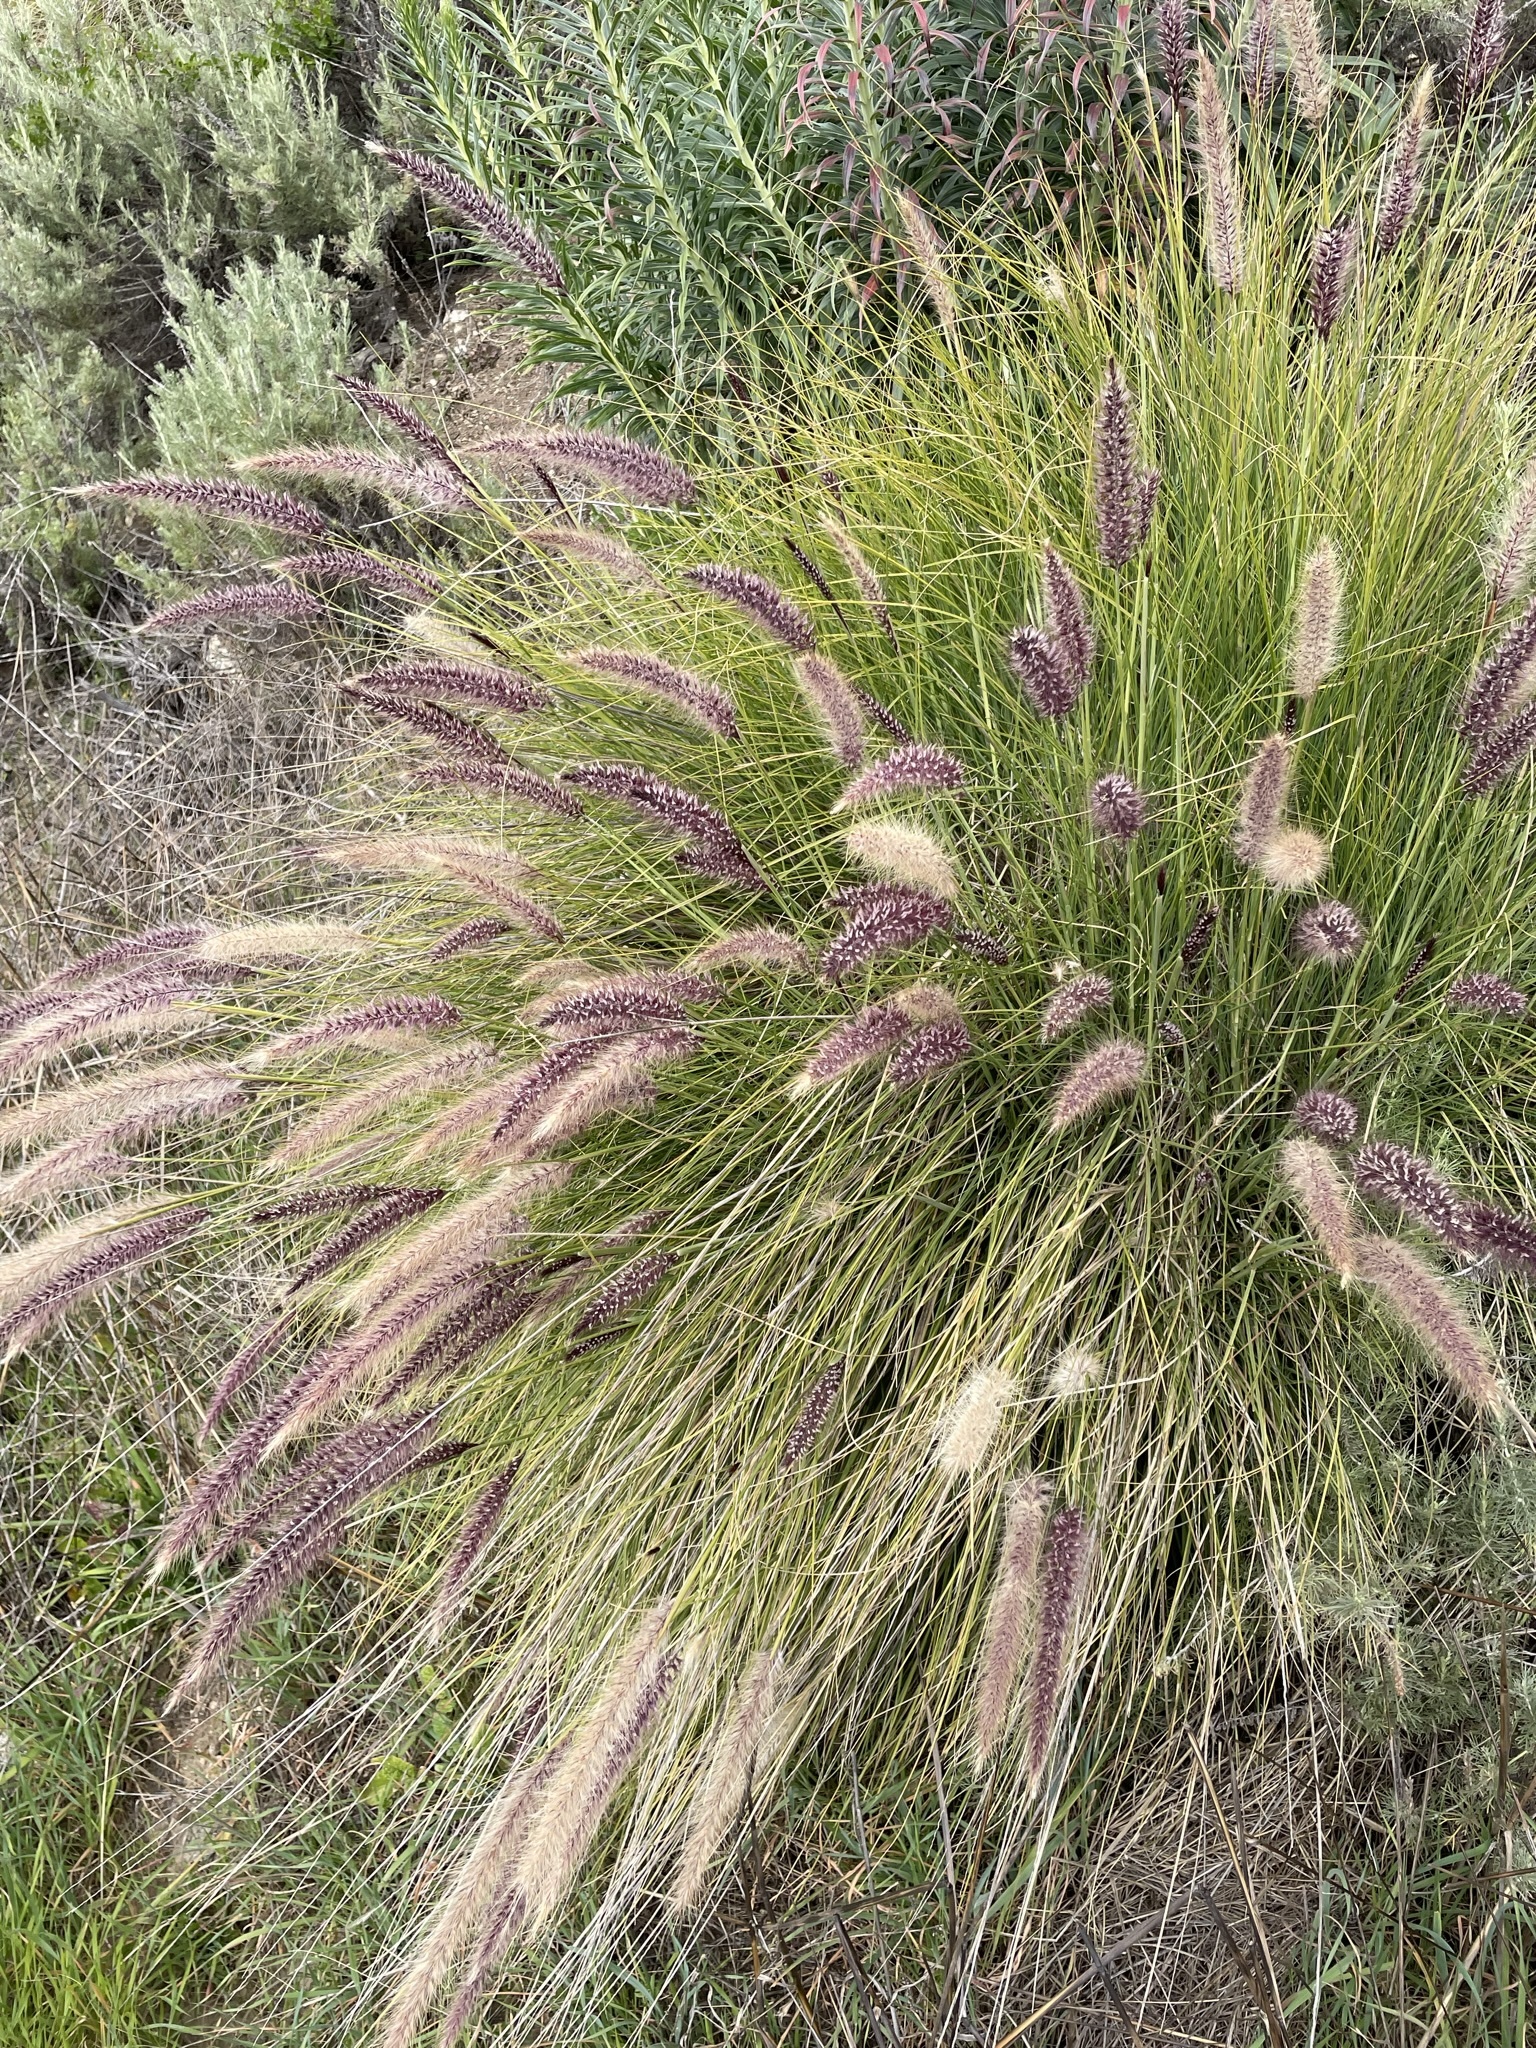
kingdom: Plantae
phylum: Tracheophyta
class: Liliopsida
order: Poales
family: Poaceae
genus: Cenchrus
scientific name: Cenchrus setaceus
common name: Crimson fountaingrass
